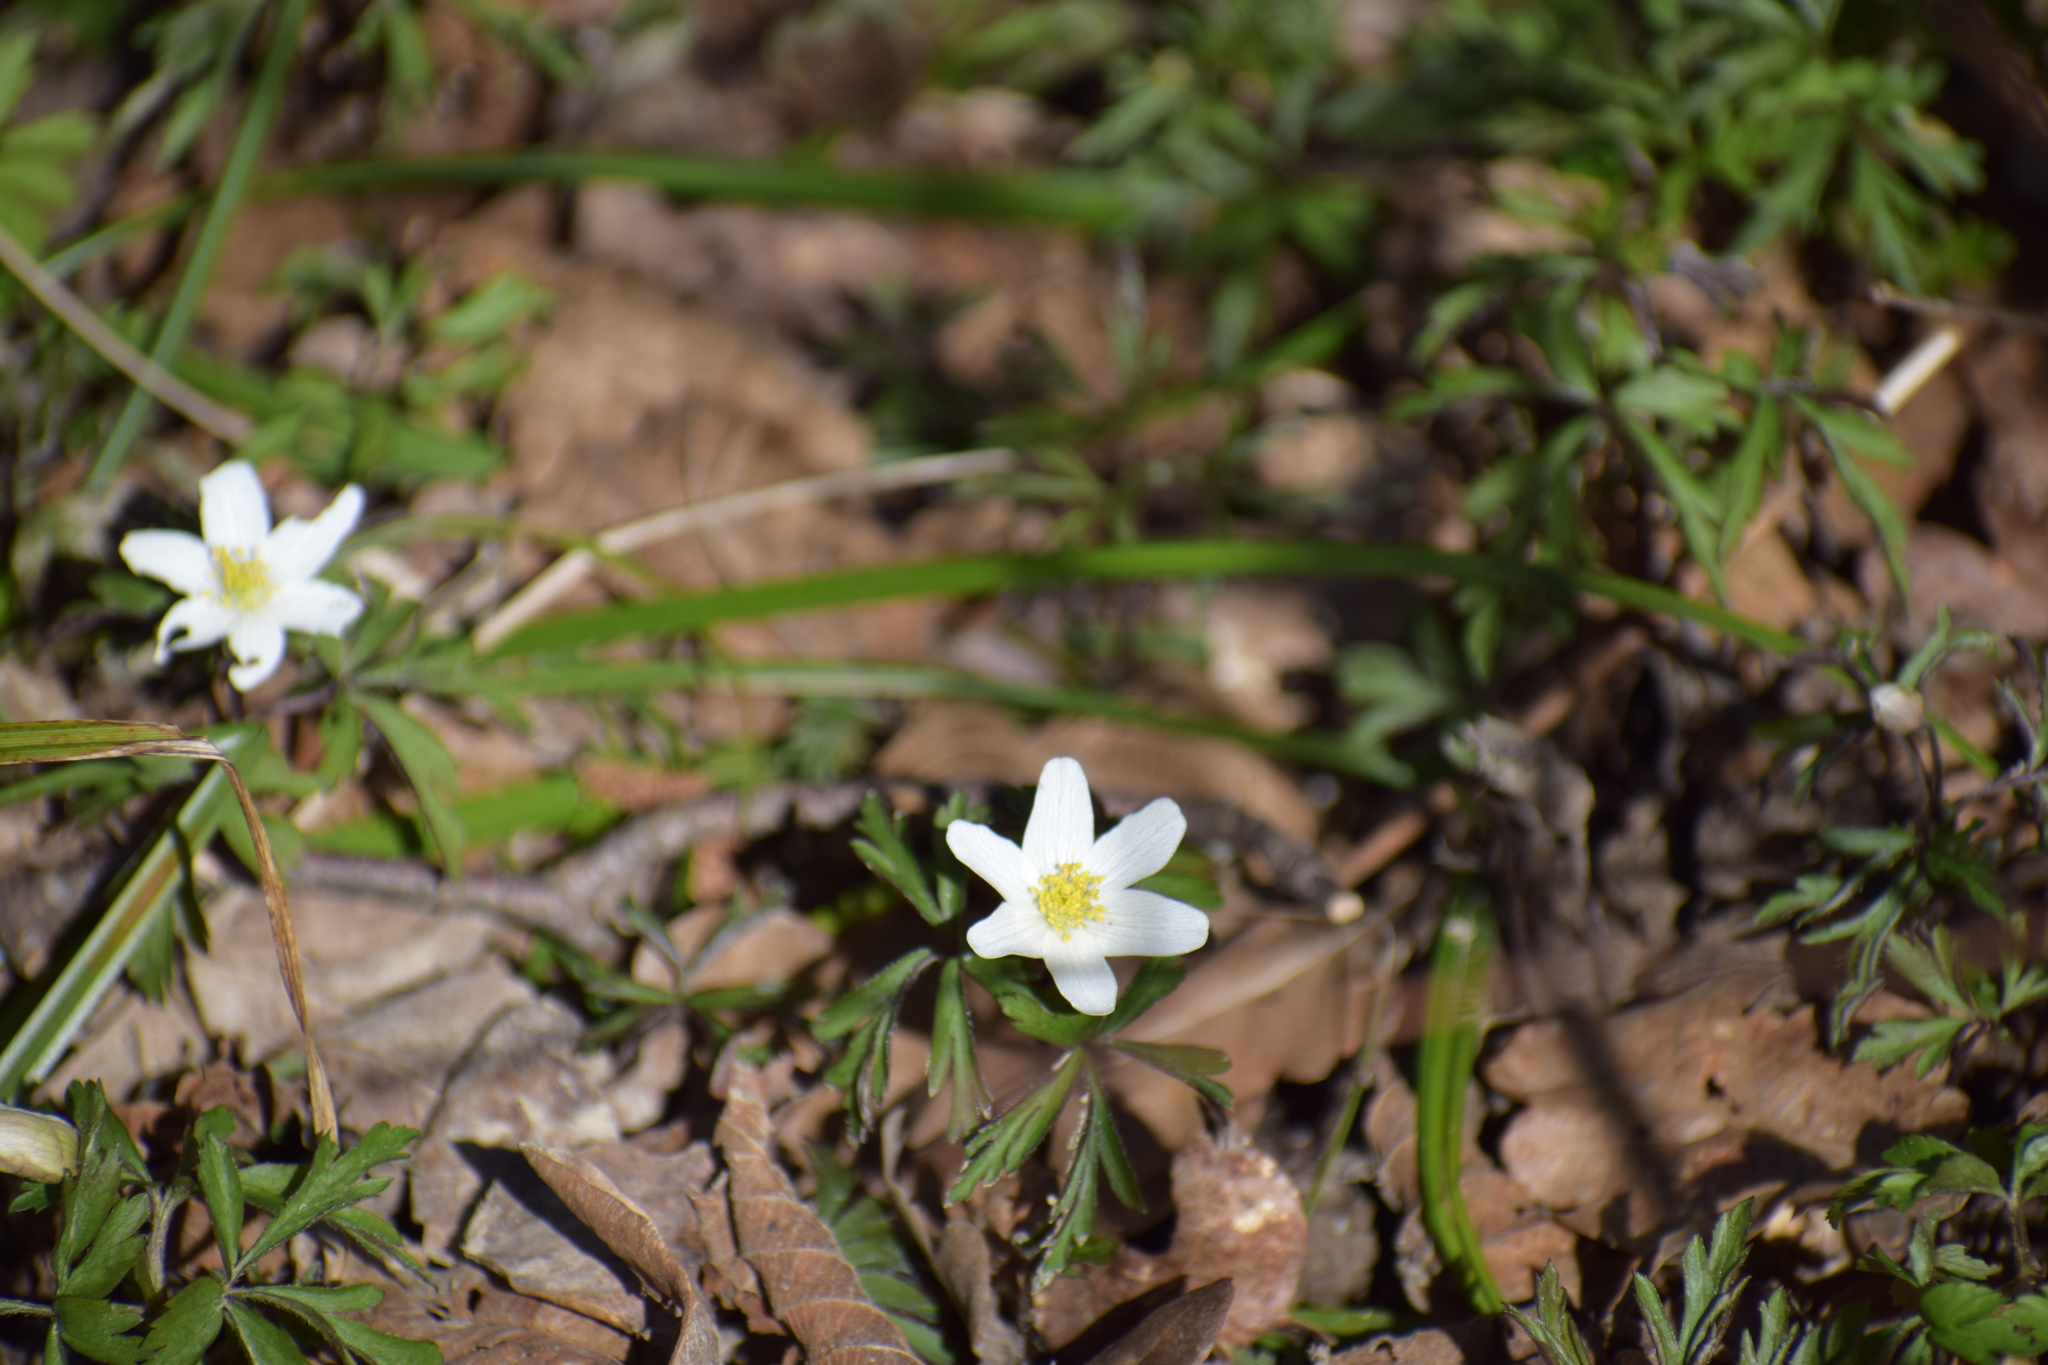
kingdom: Plantae
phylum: Tracheophyta
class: Magnoliopsida
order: Ranunculales
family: Ranunculaceae
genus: Anemone
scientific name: Anemone nemorosa
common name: Wood anemone
